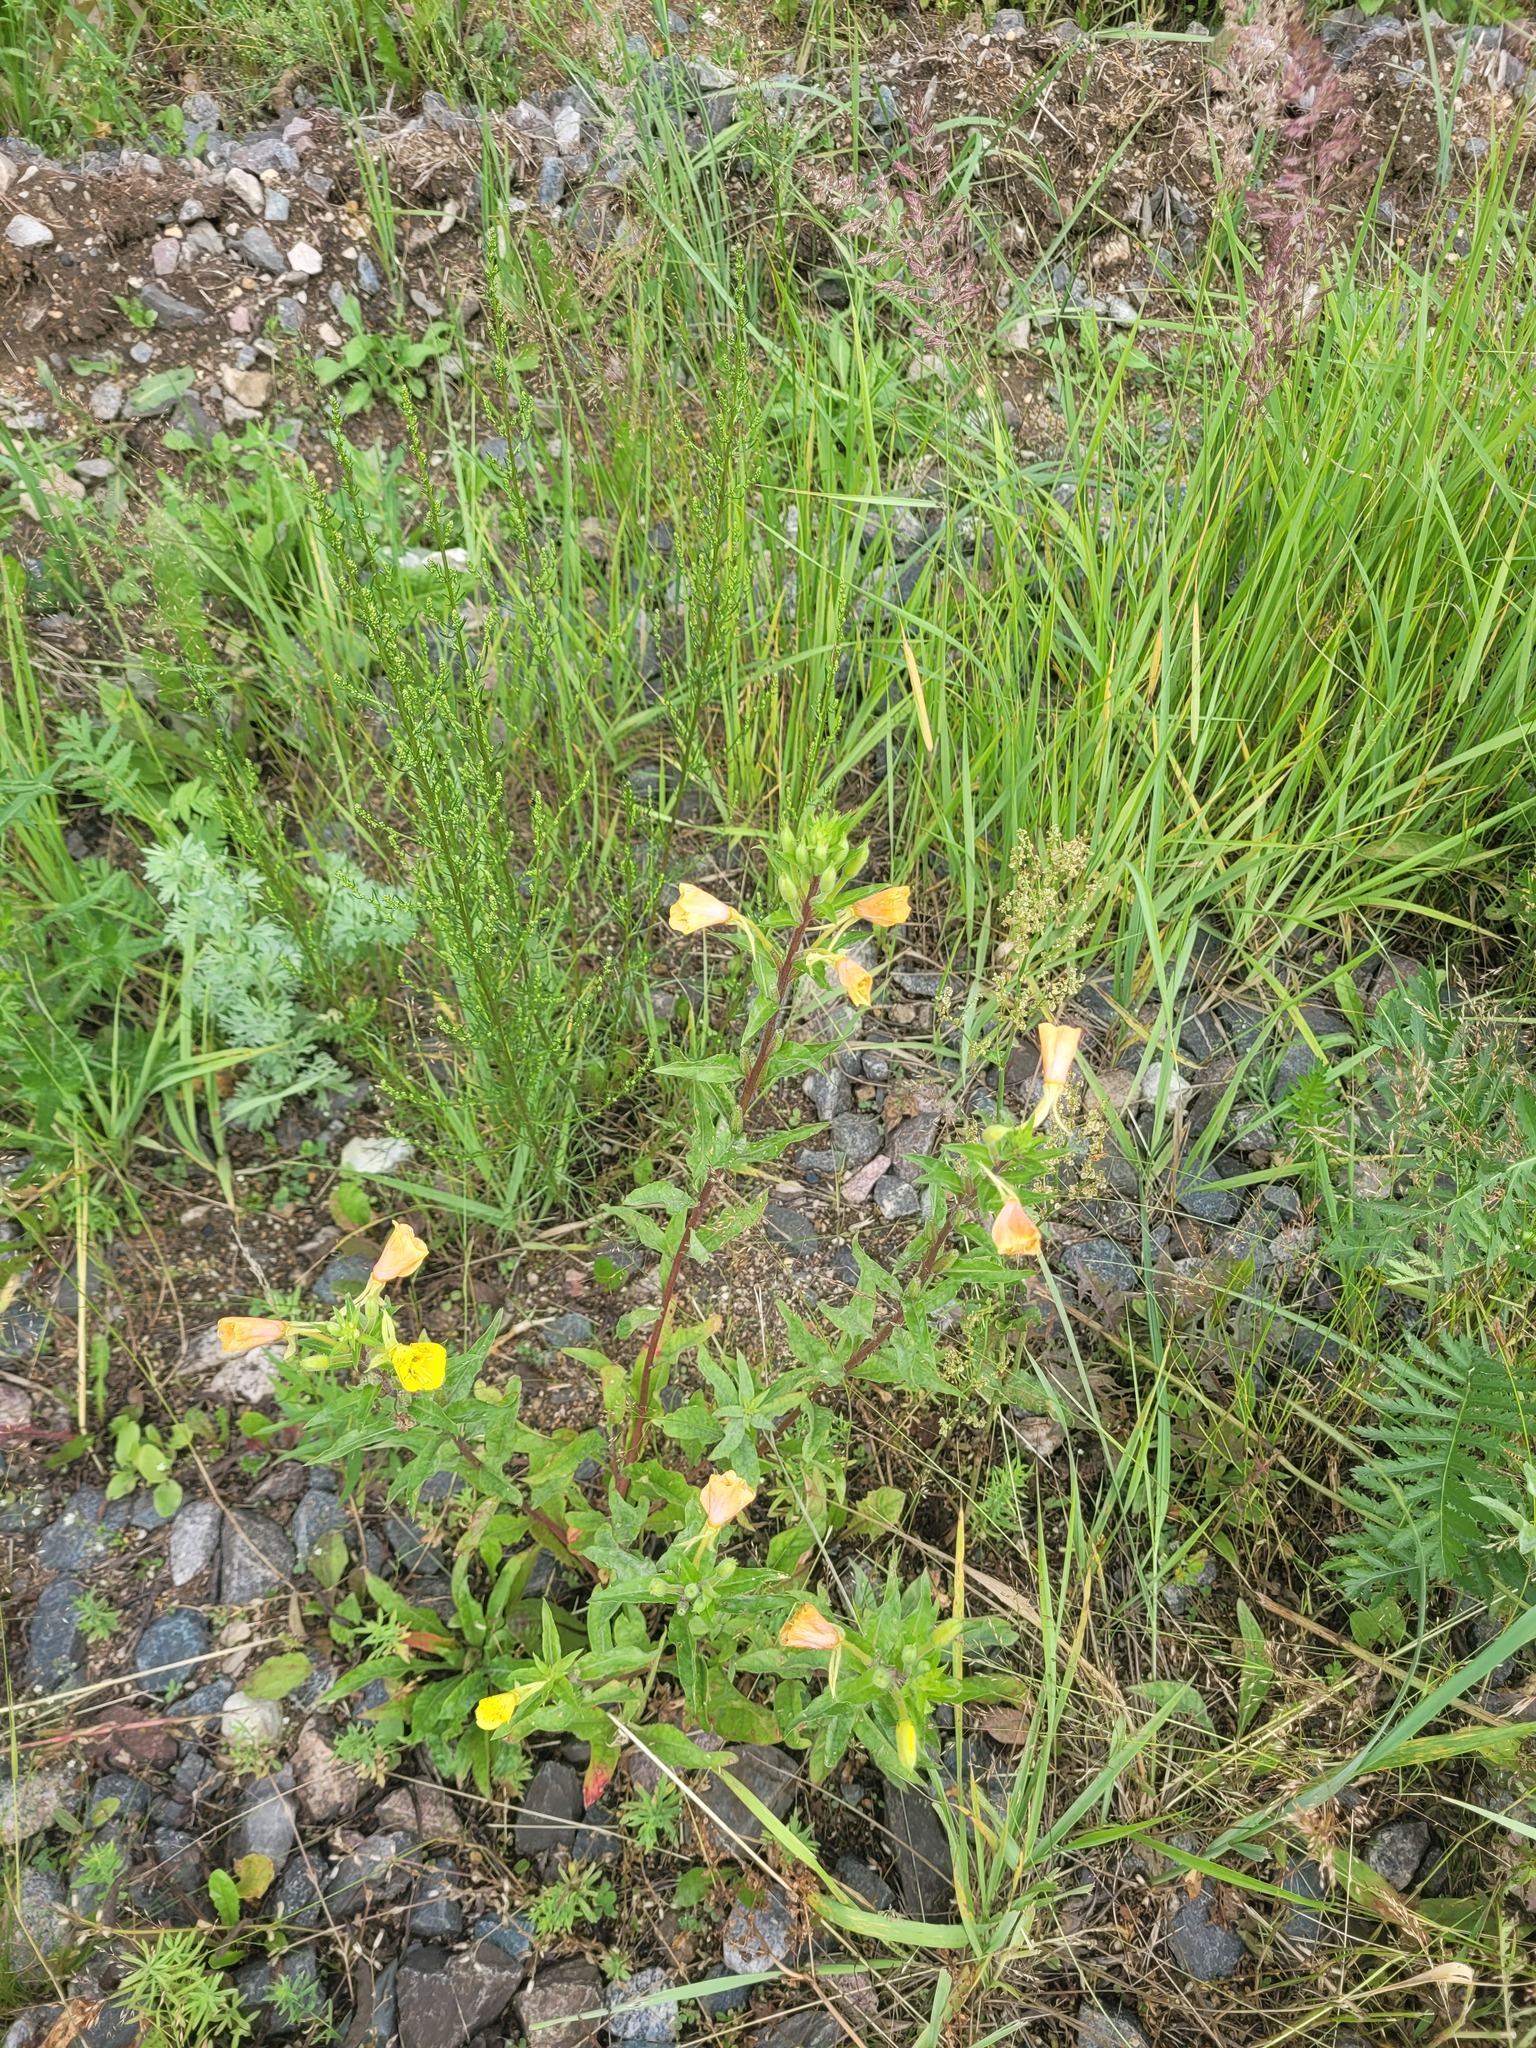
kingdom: Plantae
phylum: Tracheophyta
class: Magnoliopsida
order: Myrtales
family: Onagraceae
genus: Oenothera
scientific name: Oenothera rubricaulis
